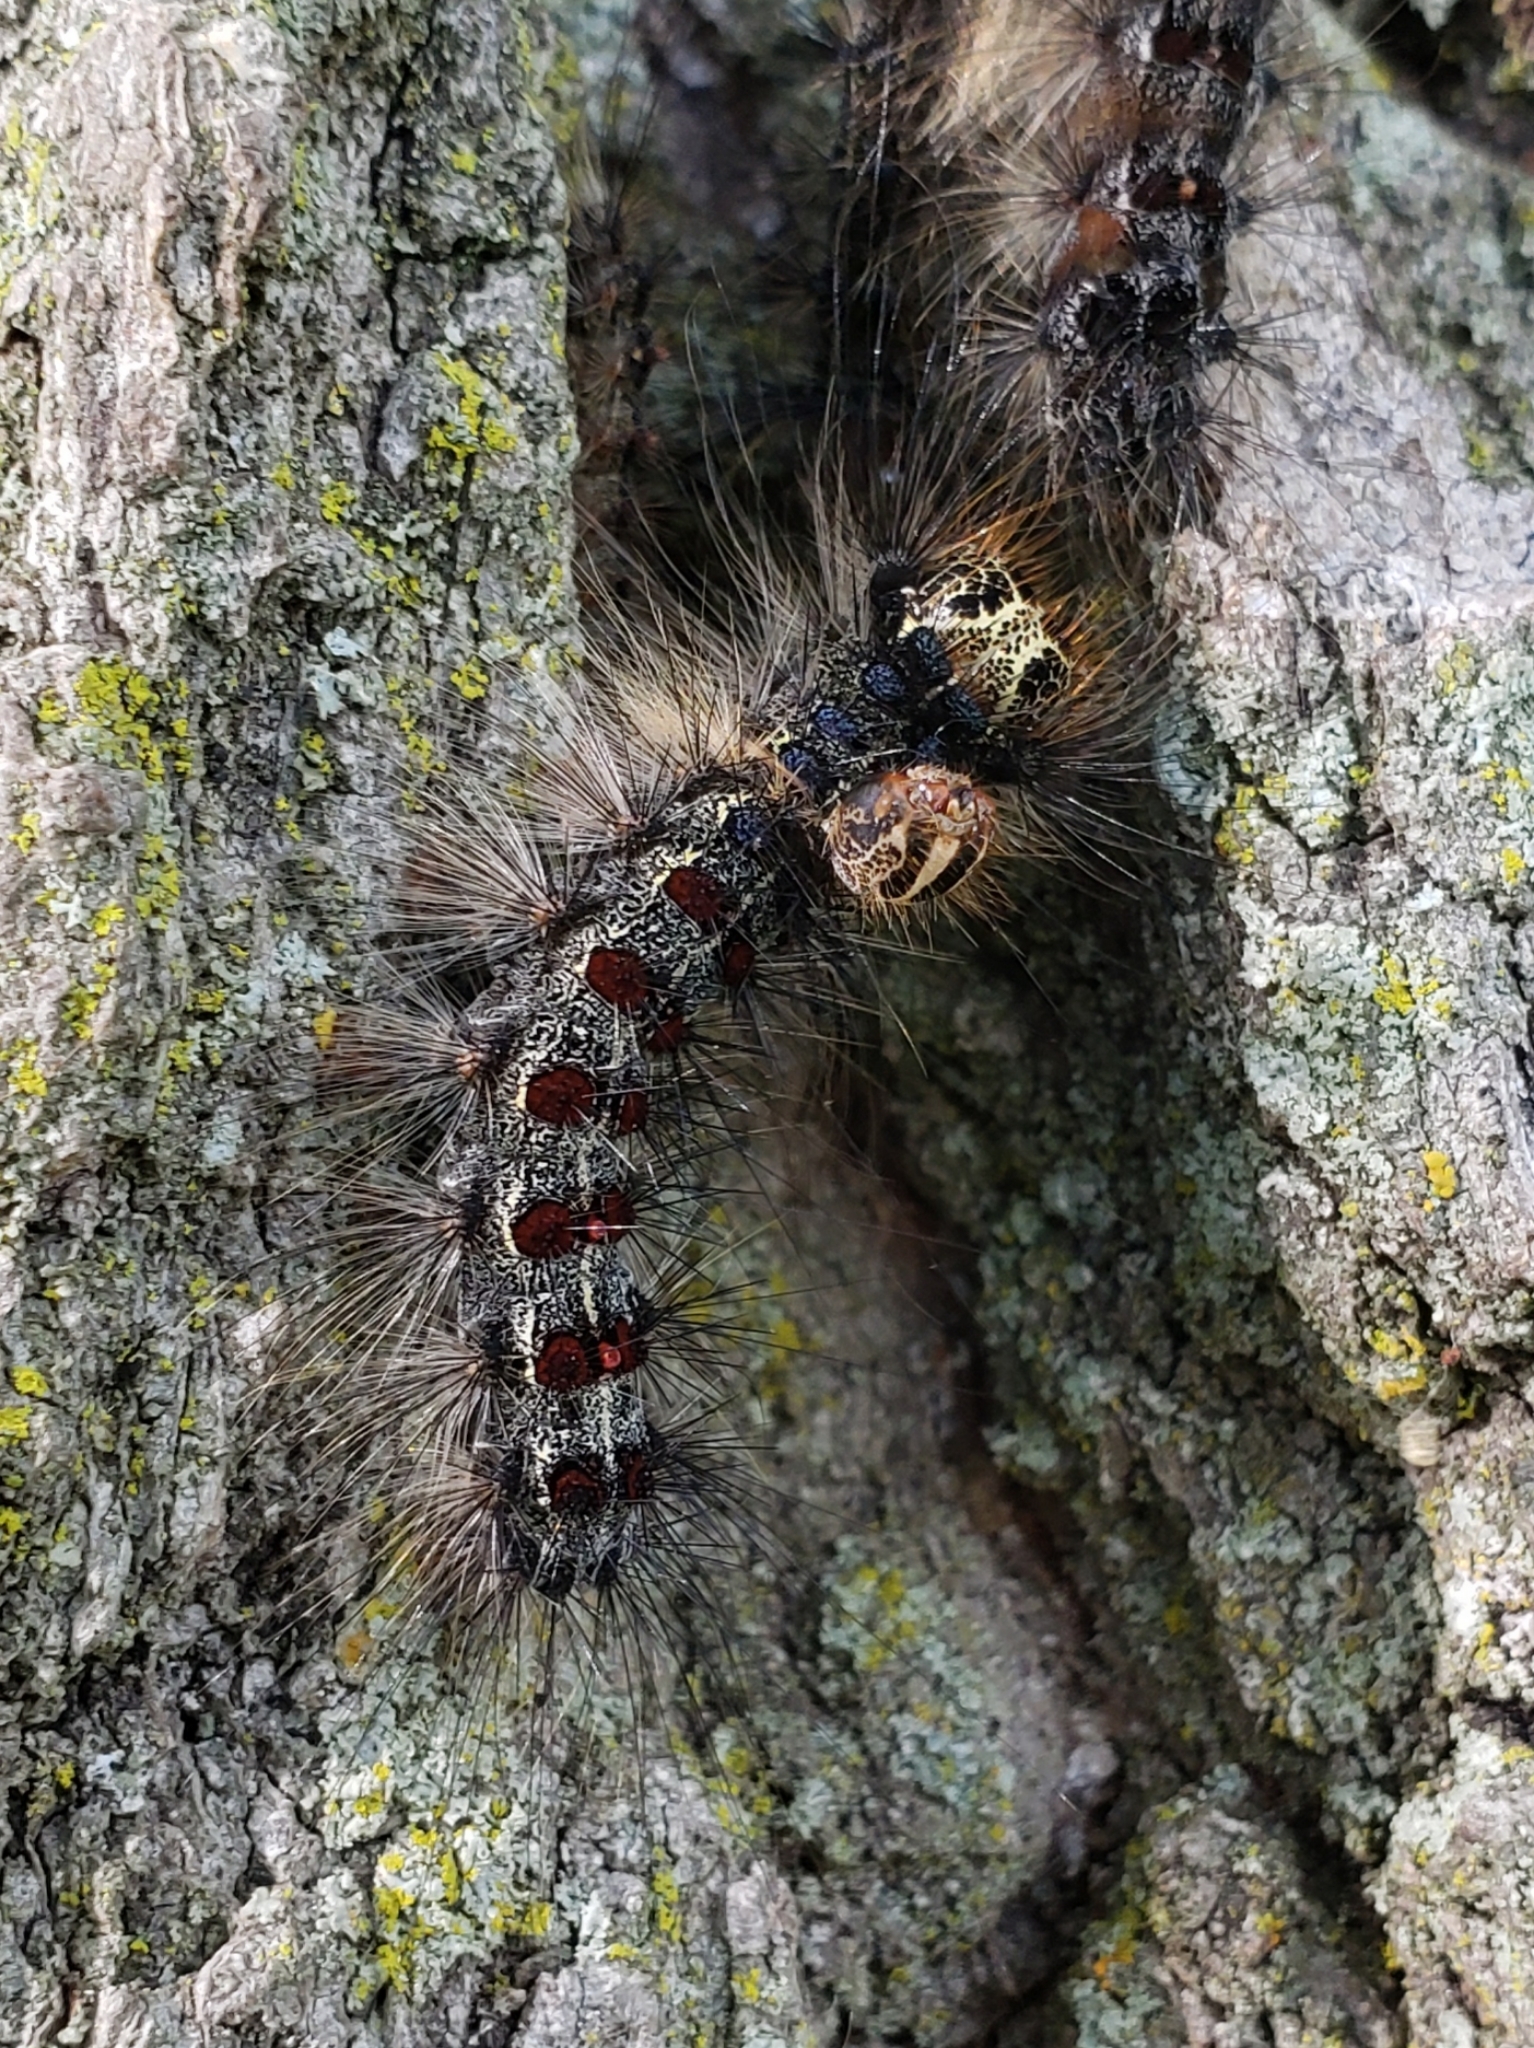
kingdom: Animalia
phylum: Arthropoda
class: Insecta
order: Lepidoptera
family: Erebidae
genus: Lymantria
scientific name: Lymantria dispar
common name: Gypsy moth
